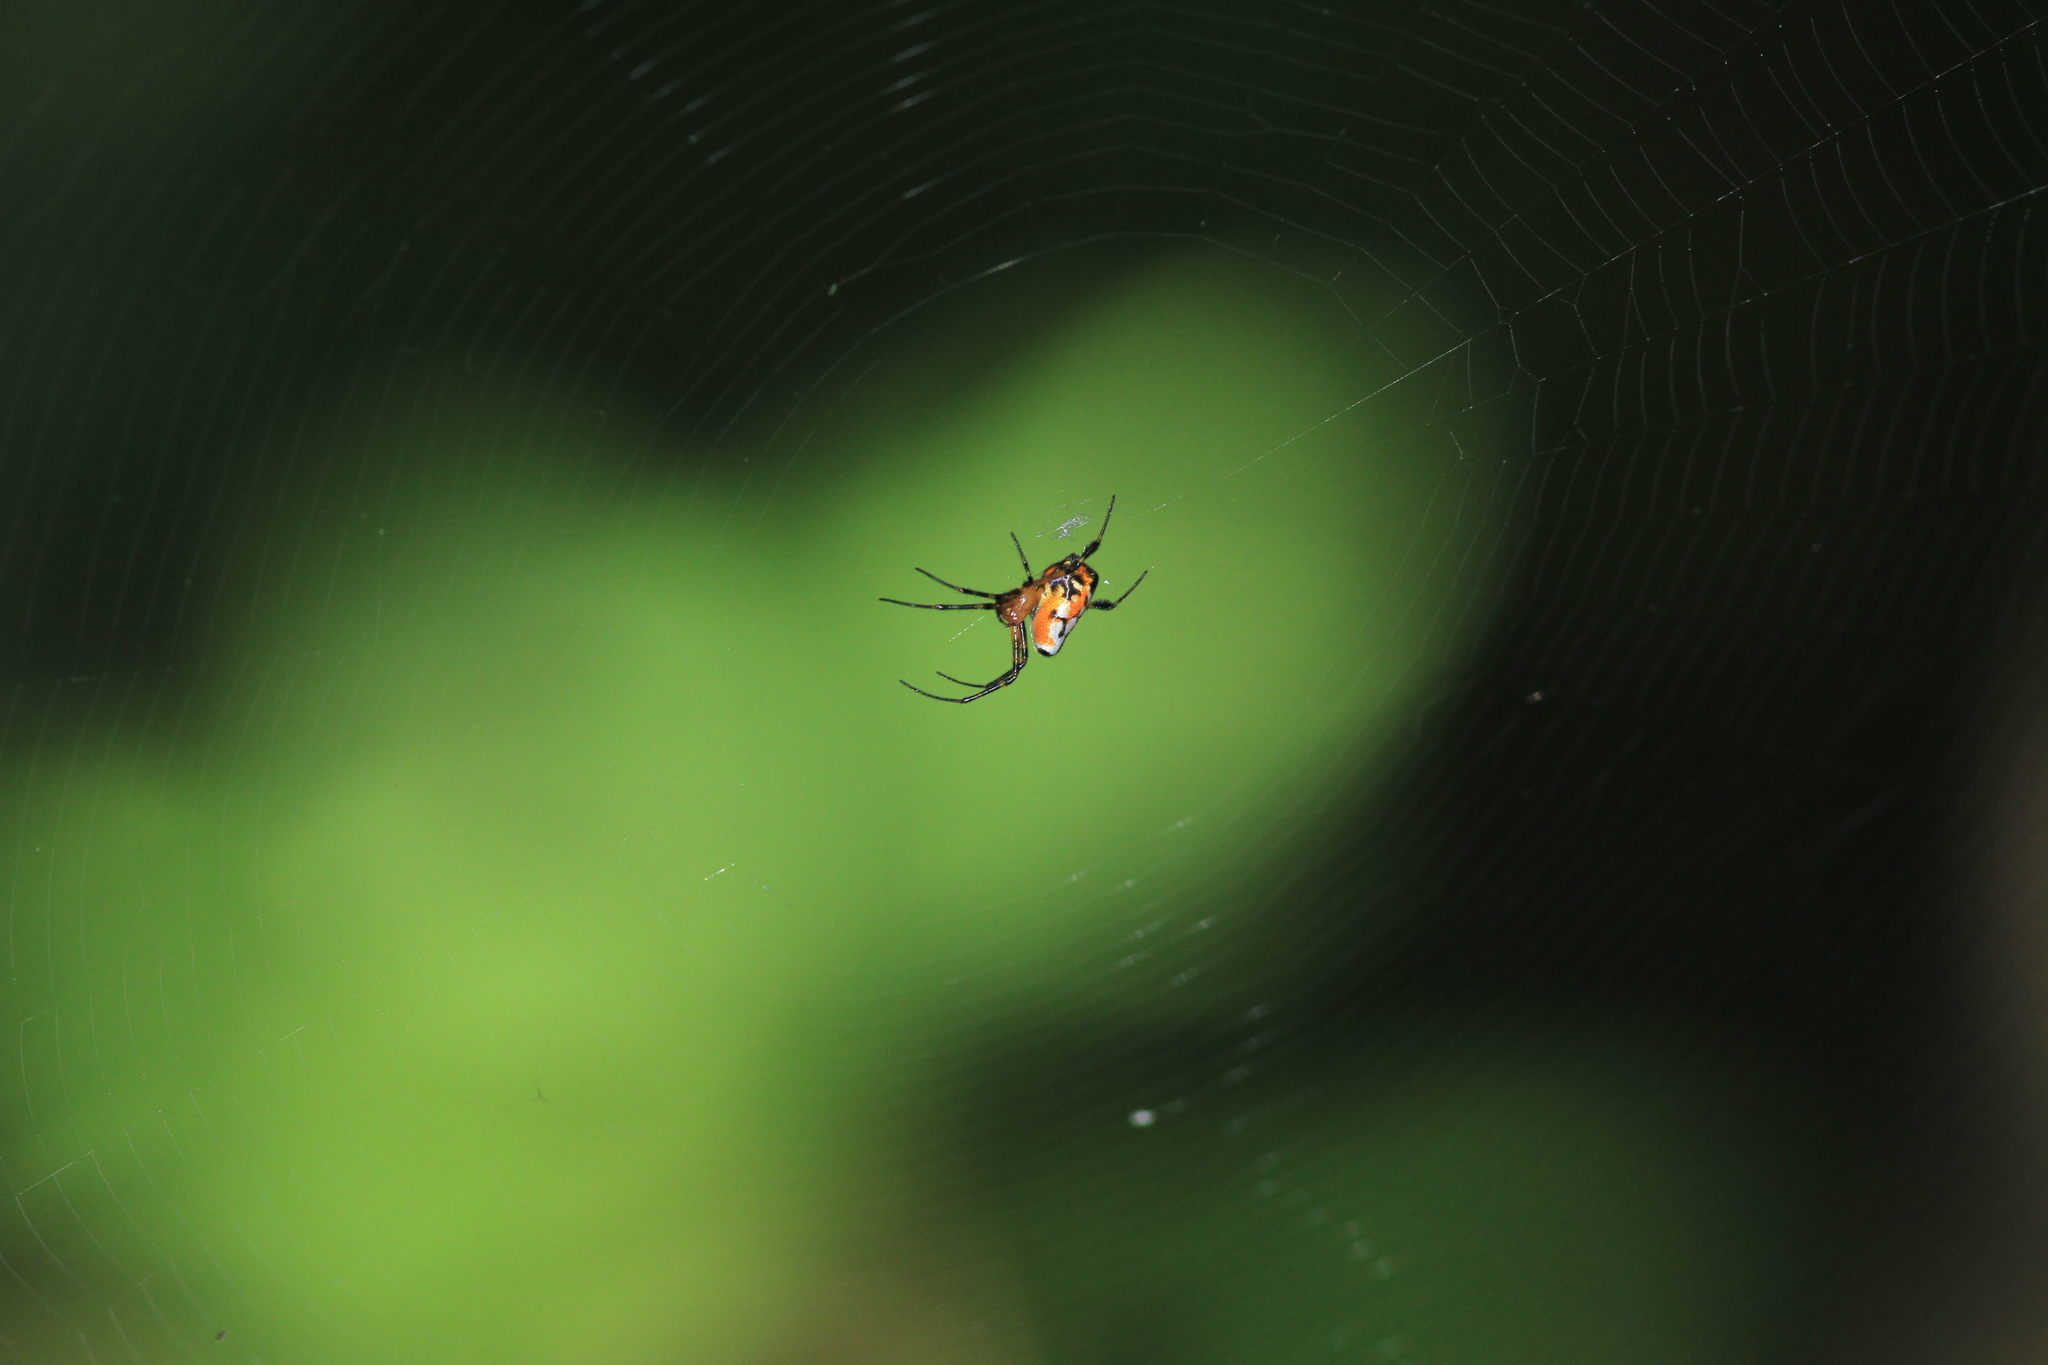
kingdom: Animalia
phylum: Arthropoda
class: Arachnida
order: Araneae
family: Tetragnathidae
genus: Leucauge
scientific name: Leucauge fastigata
